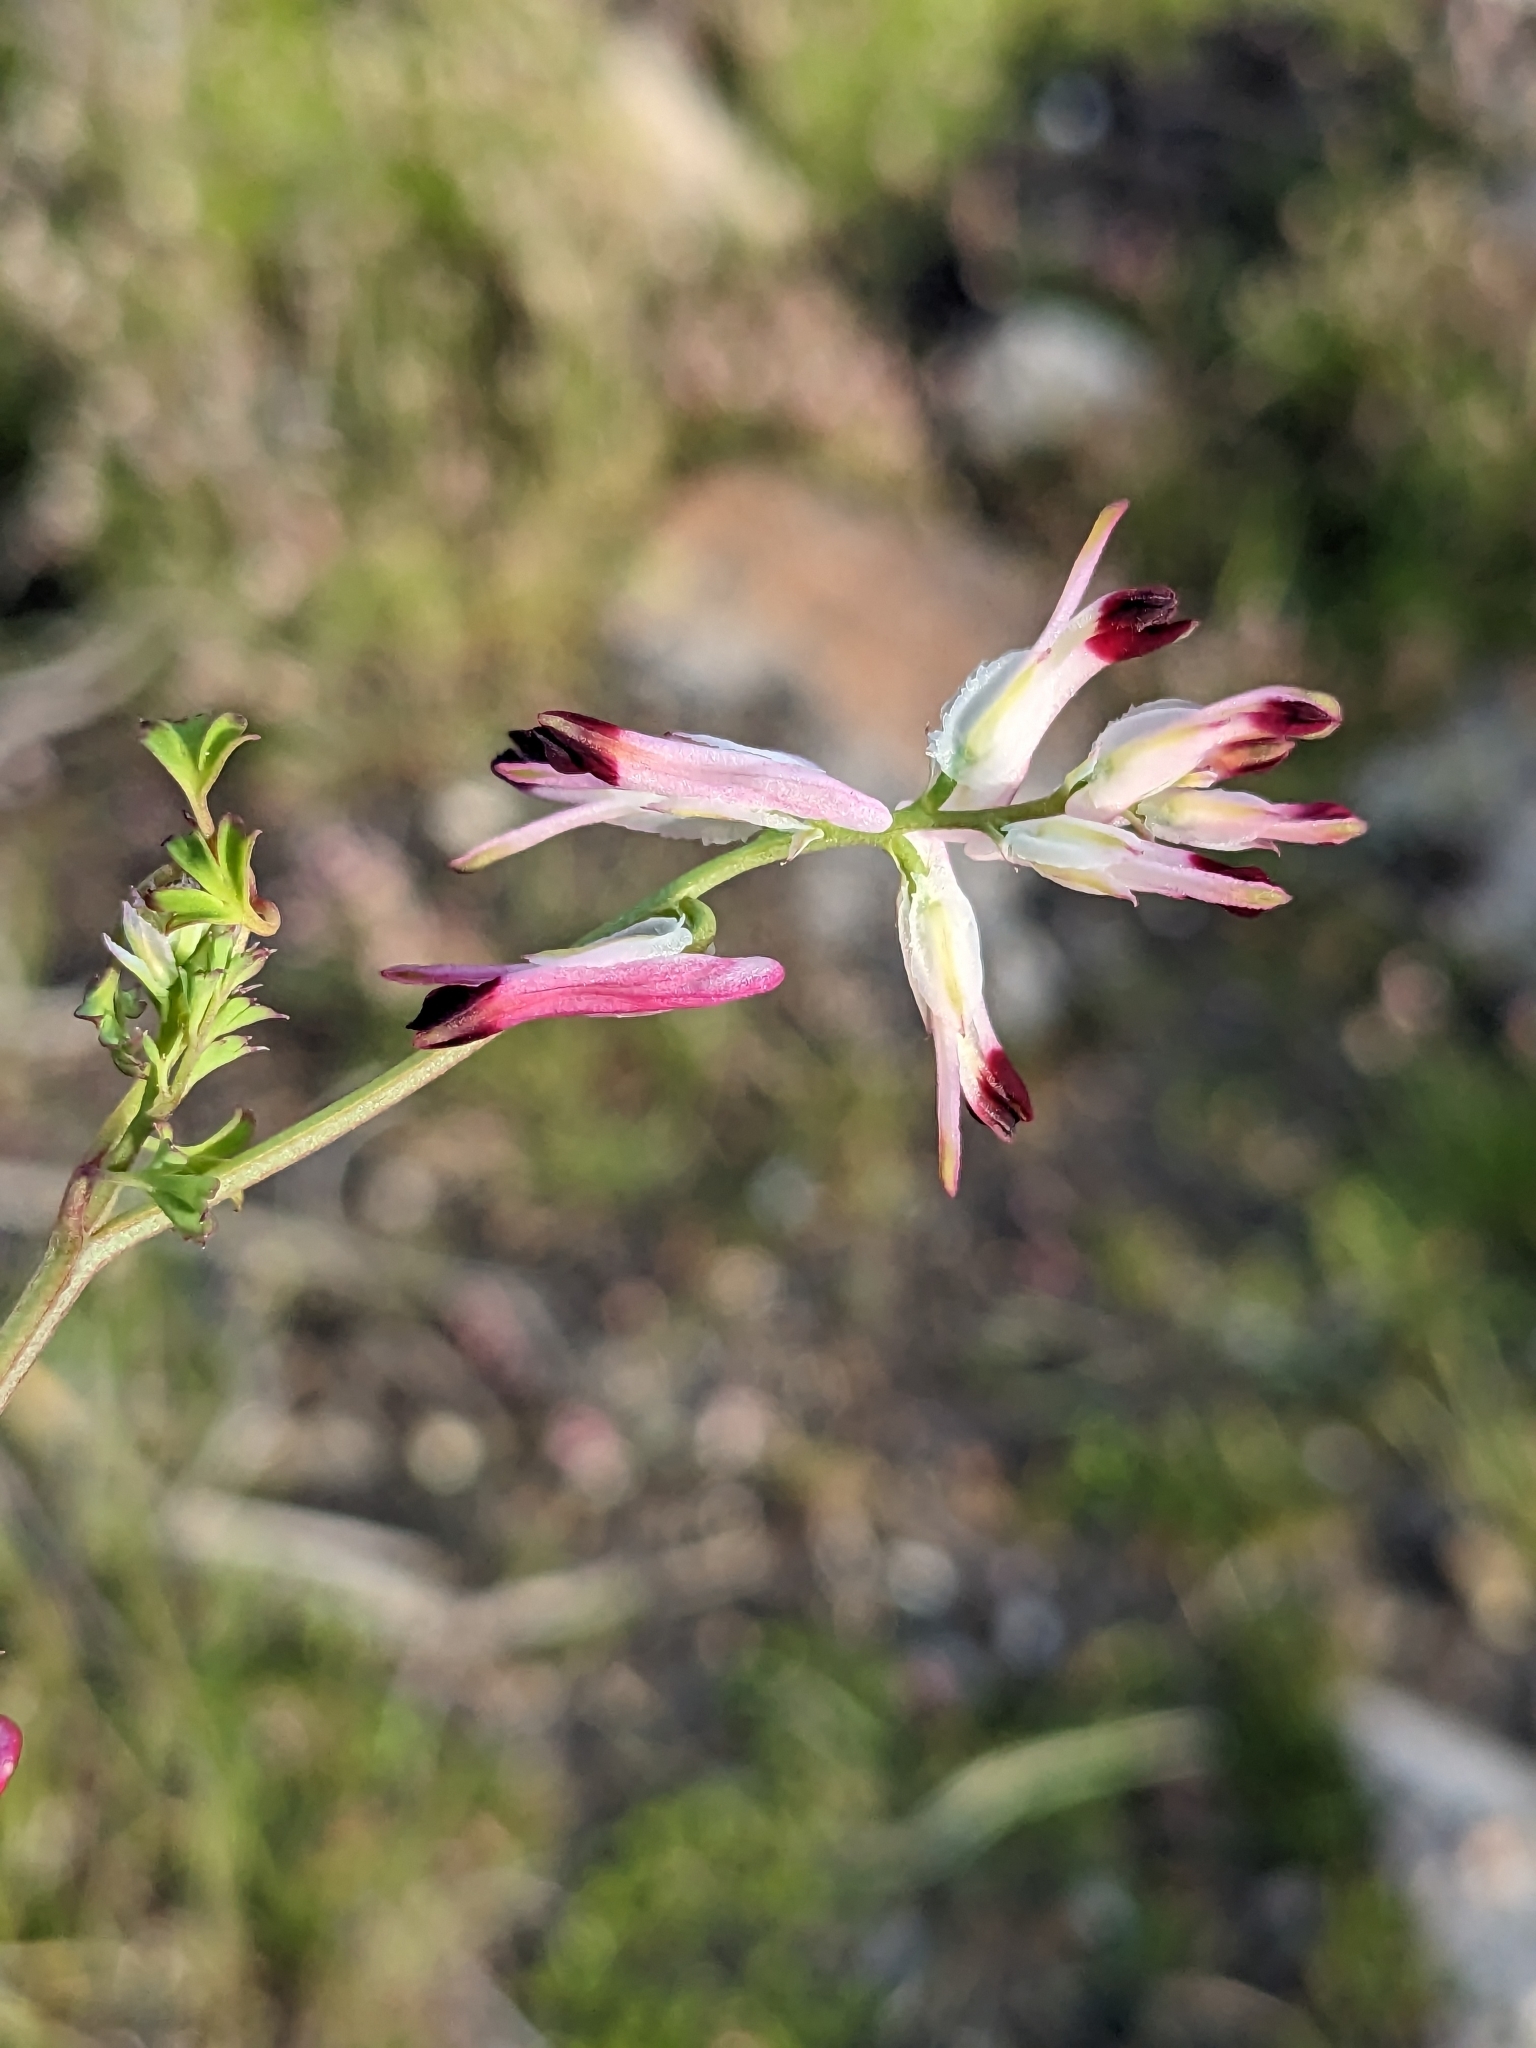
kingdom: Plantae
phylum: Tracheophyta
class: Magnoliopsida
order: Ranunculales
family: Papaveraceae
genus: Fumaria
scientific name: Fumaria capreolata
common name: White ramping-fumitory
